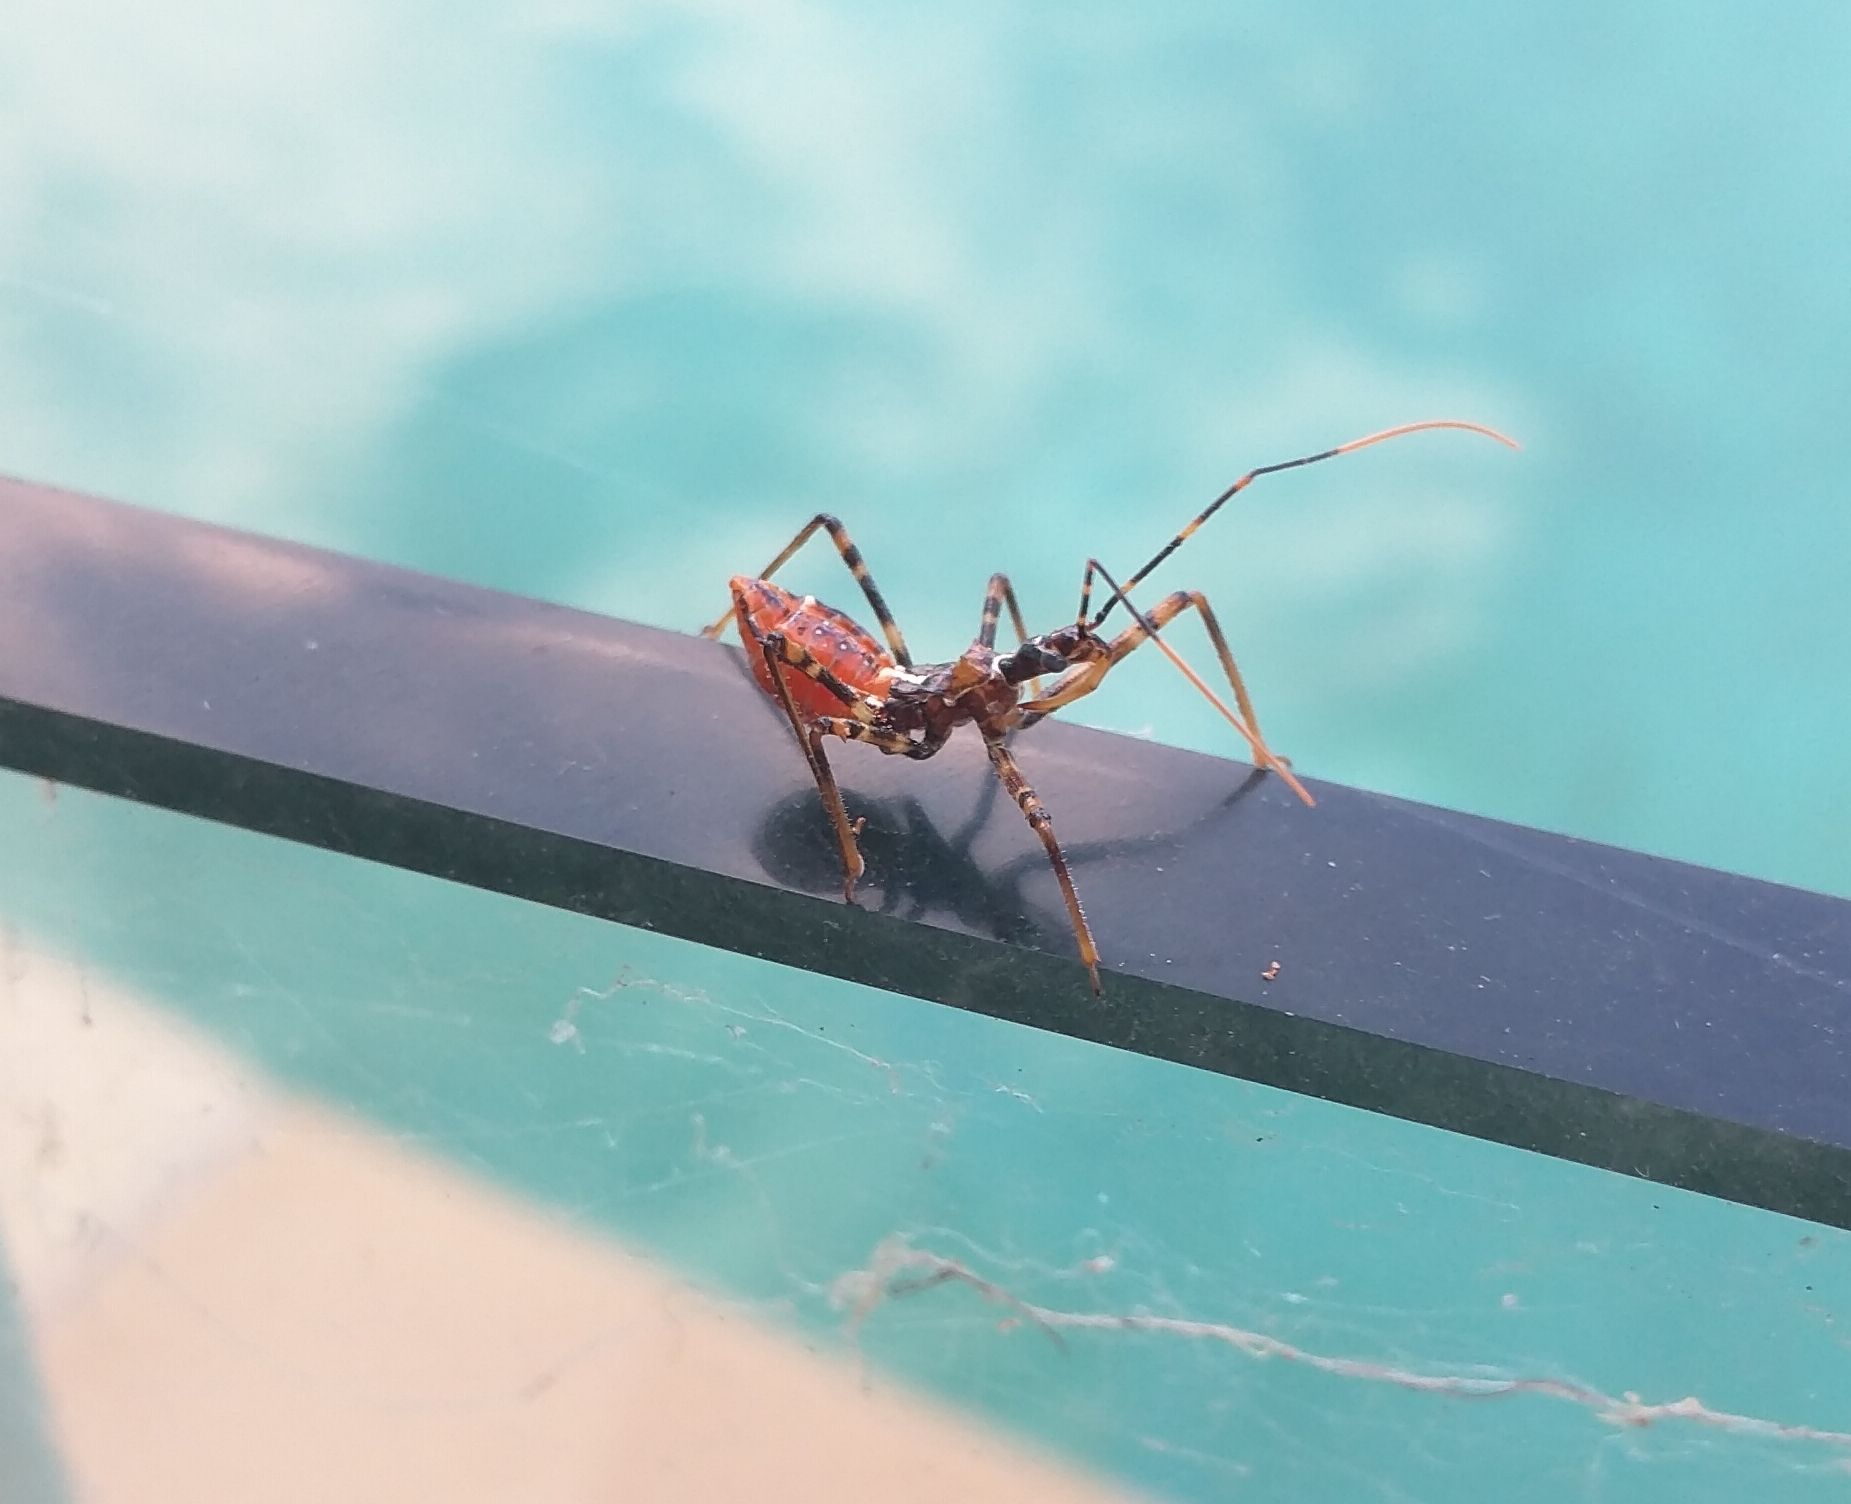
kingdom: Animalia
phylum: Arthropoda
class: Insecta
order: Hemiptera
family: Reduviidae
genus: Pristhesancus
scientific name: Pristhesancus plagipennis
